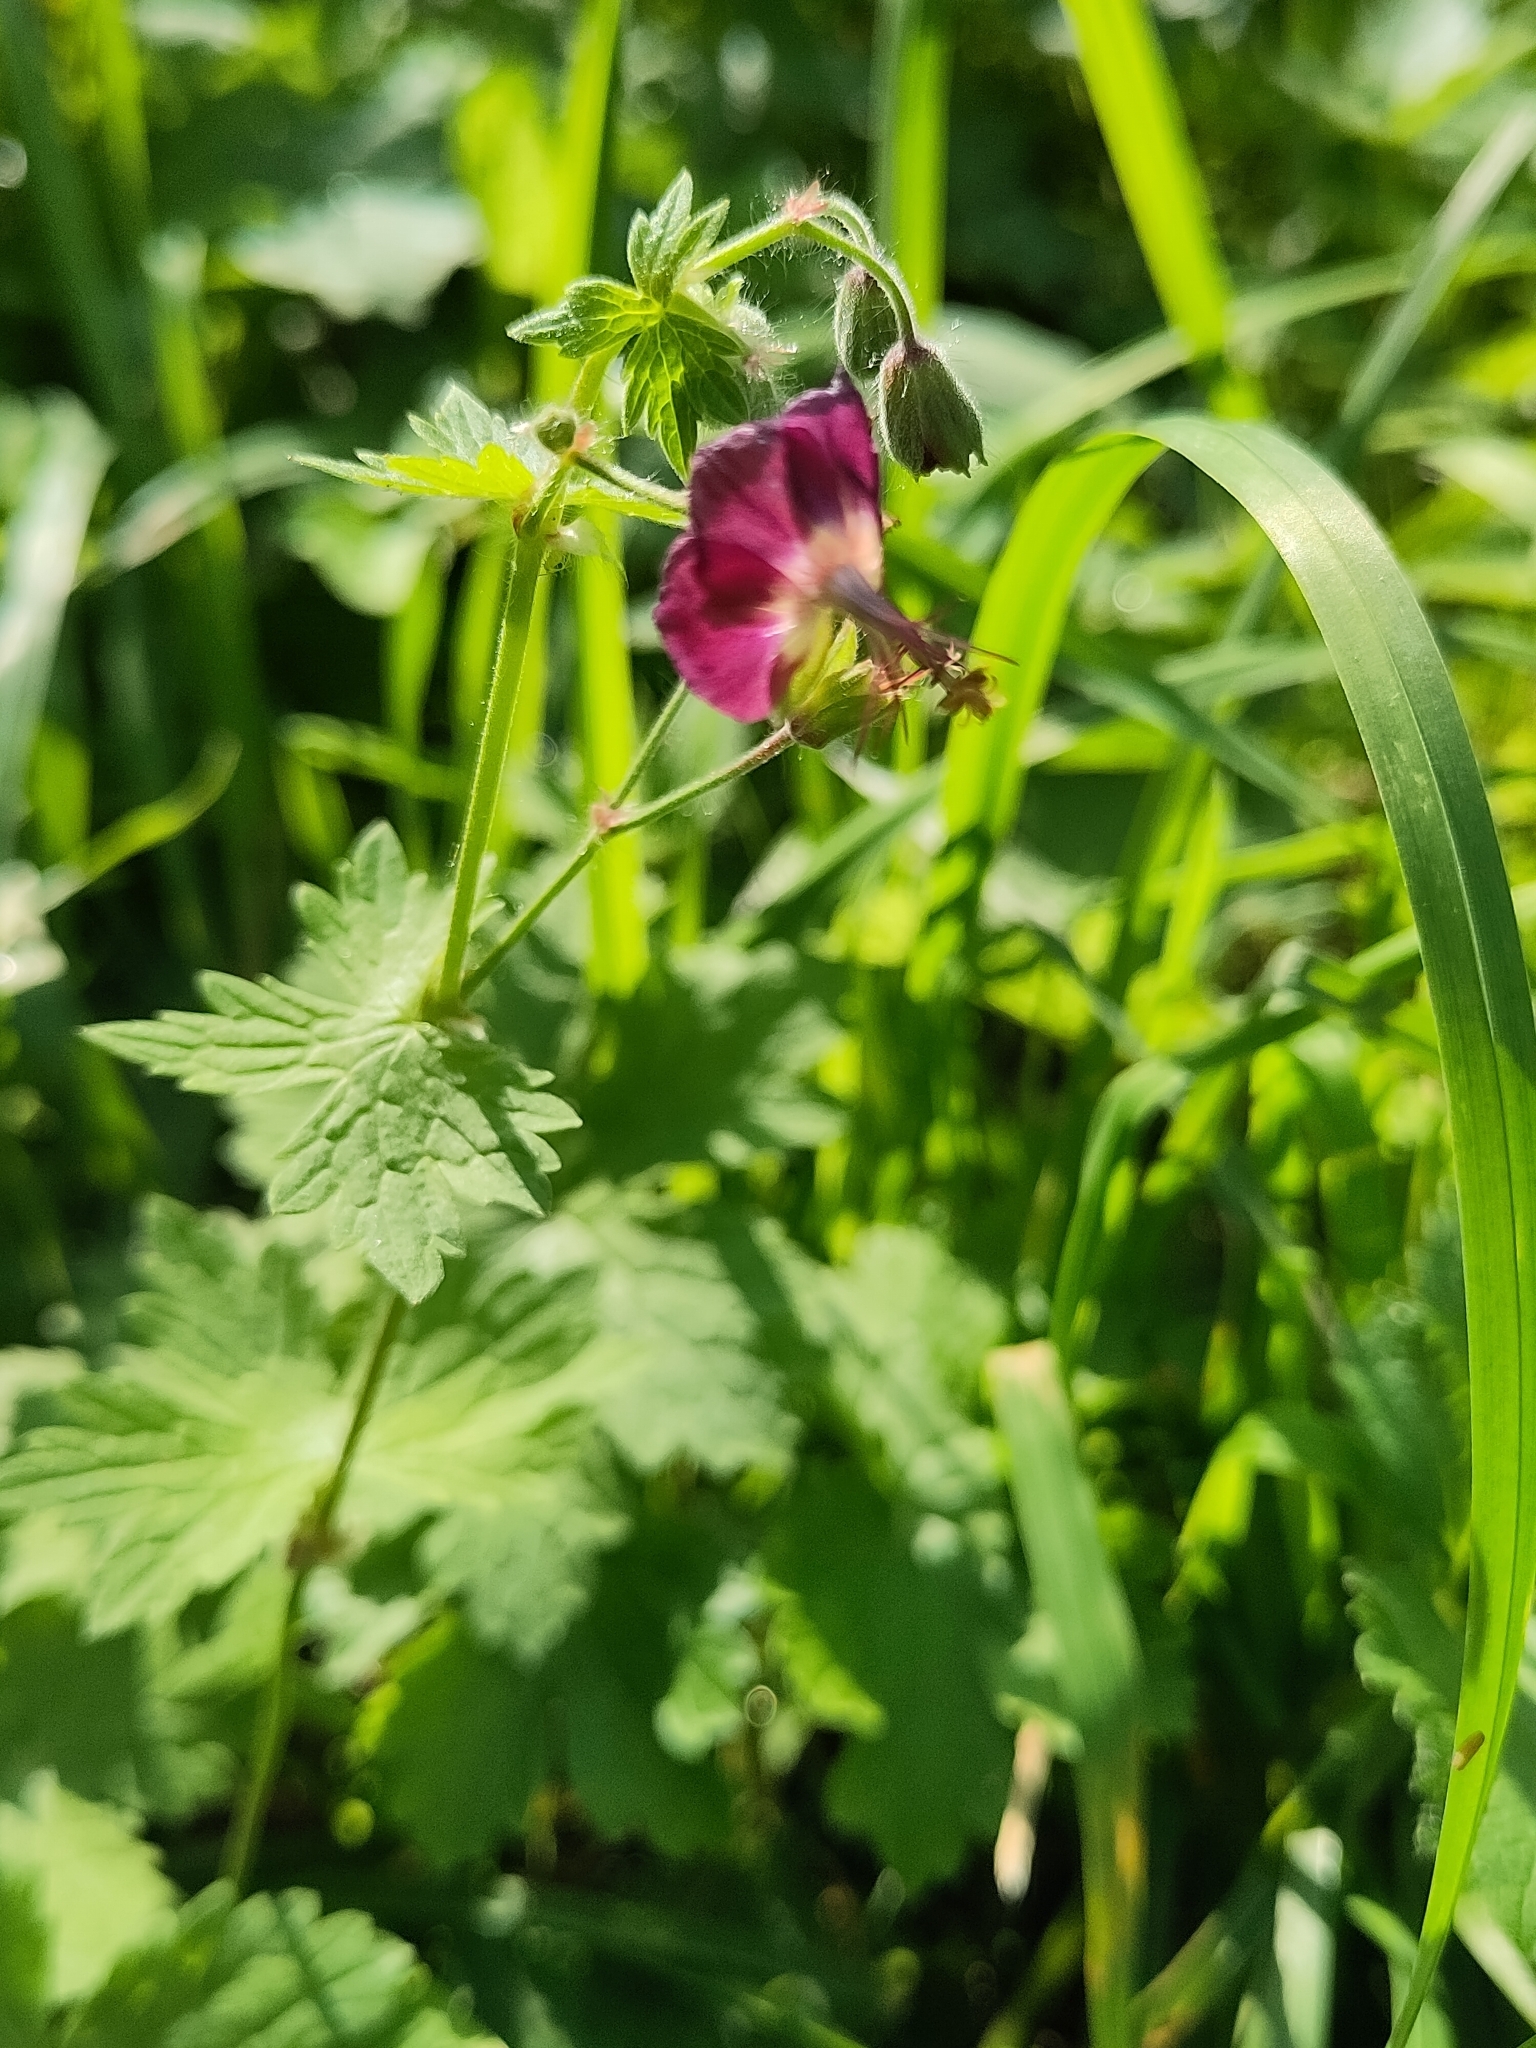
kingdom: Plantae
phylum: Tracheophyta
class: Magnoliopsida
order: Geraniales
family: Geraniaceae
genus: Geranium
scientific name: Geranium phaeum
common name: Dusky crane's-bill
